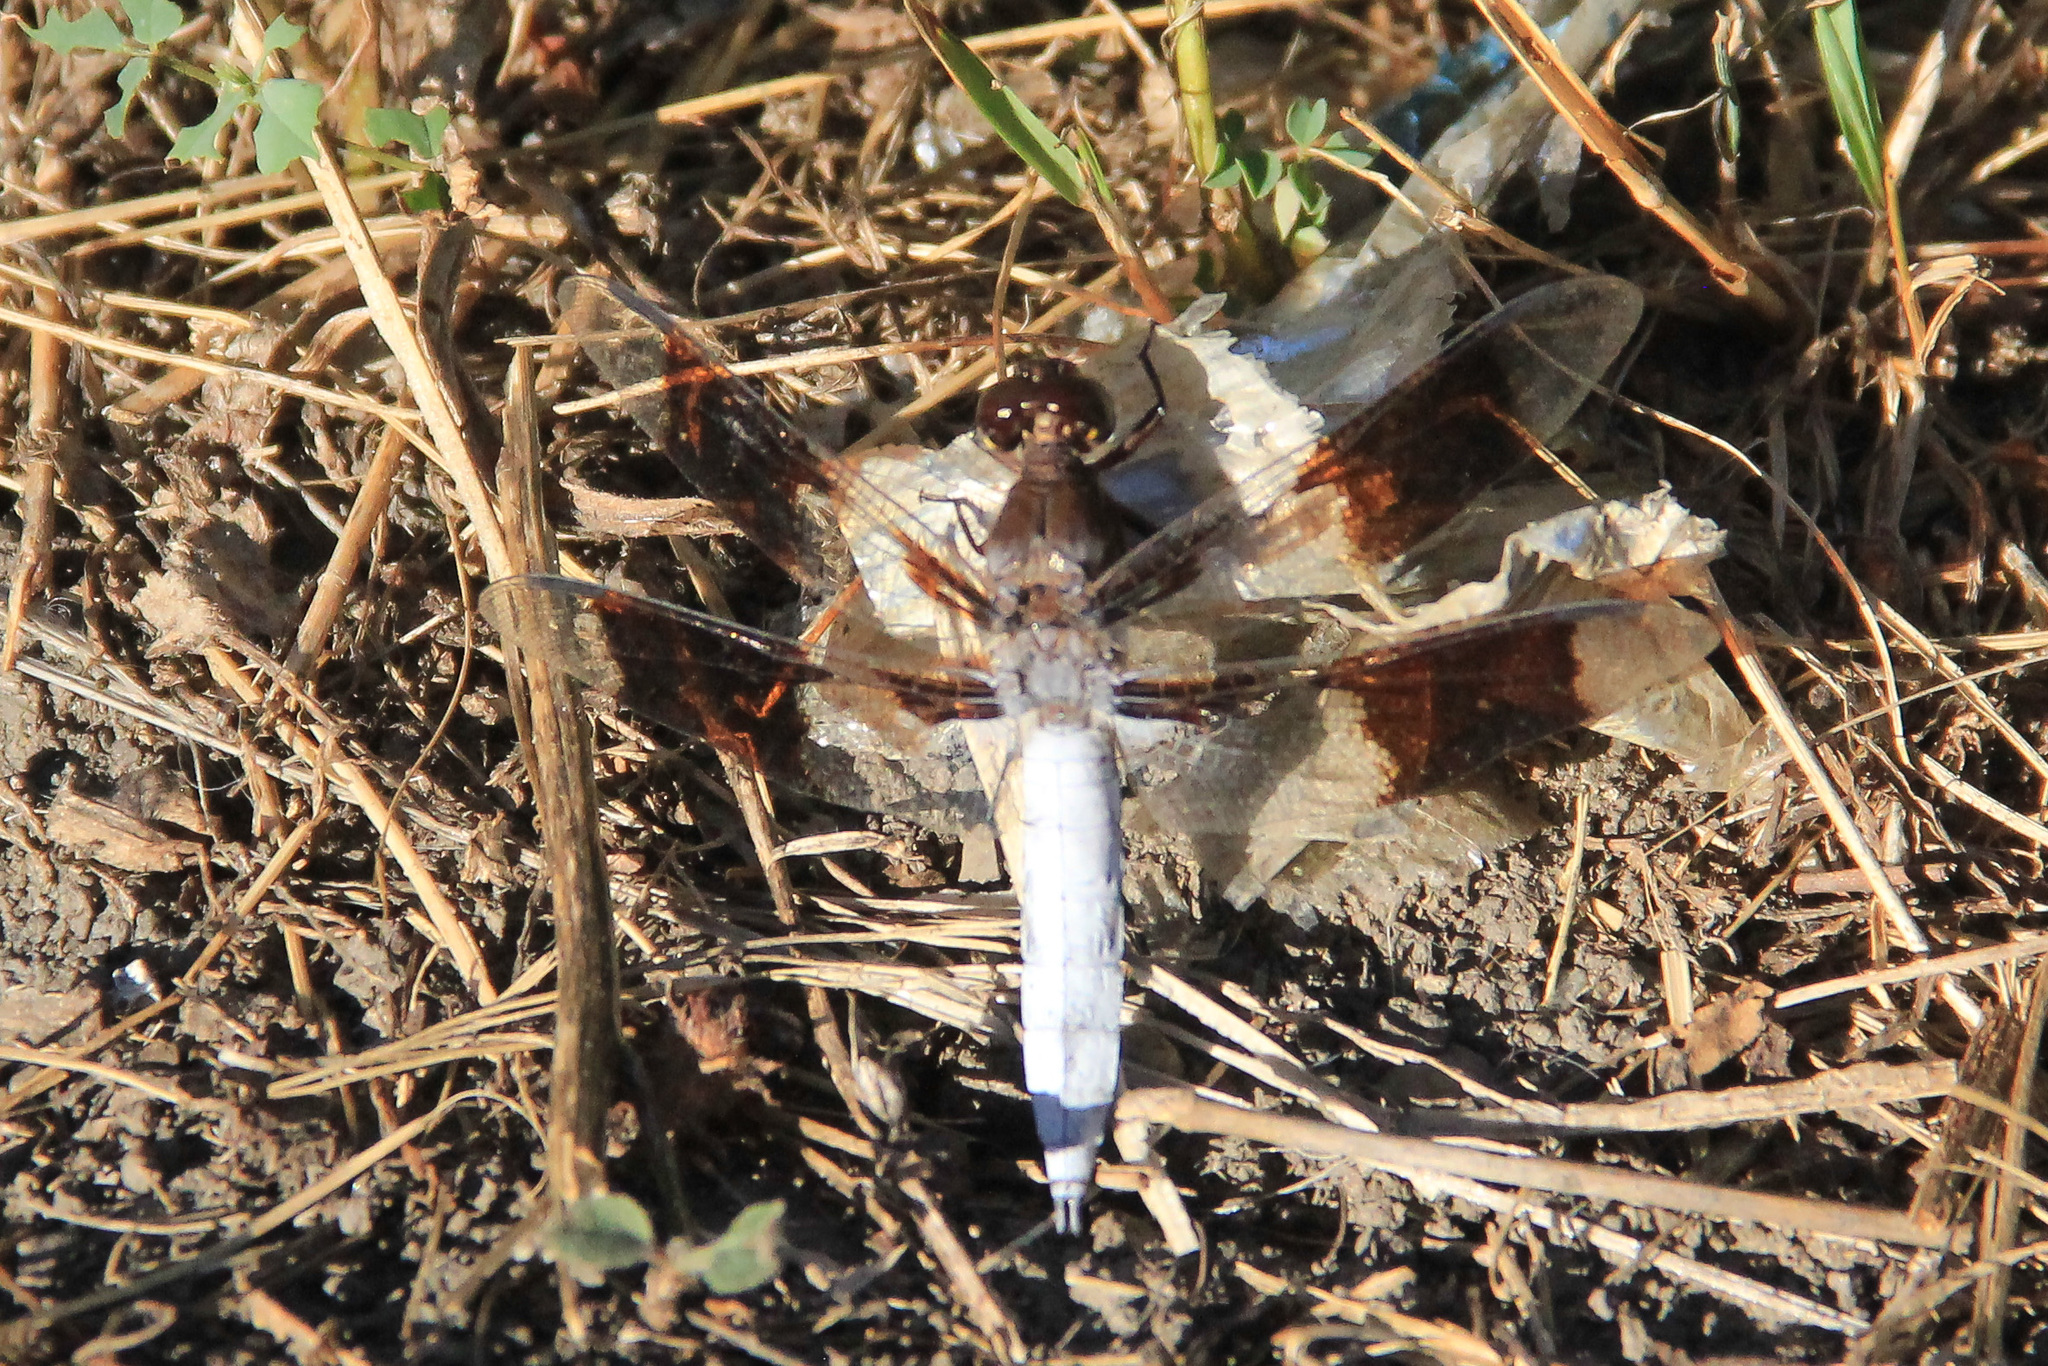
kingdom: Animalia
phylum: Arthropoda
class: Insecta
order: Odonata
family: Libellulidae
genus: Plathemis
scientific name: Plathemis lydia
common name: Common whitetail
